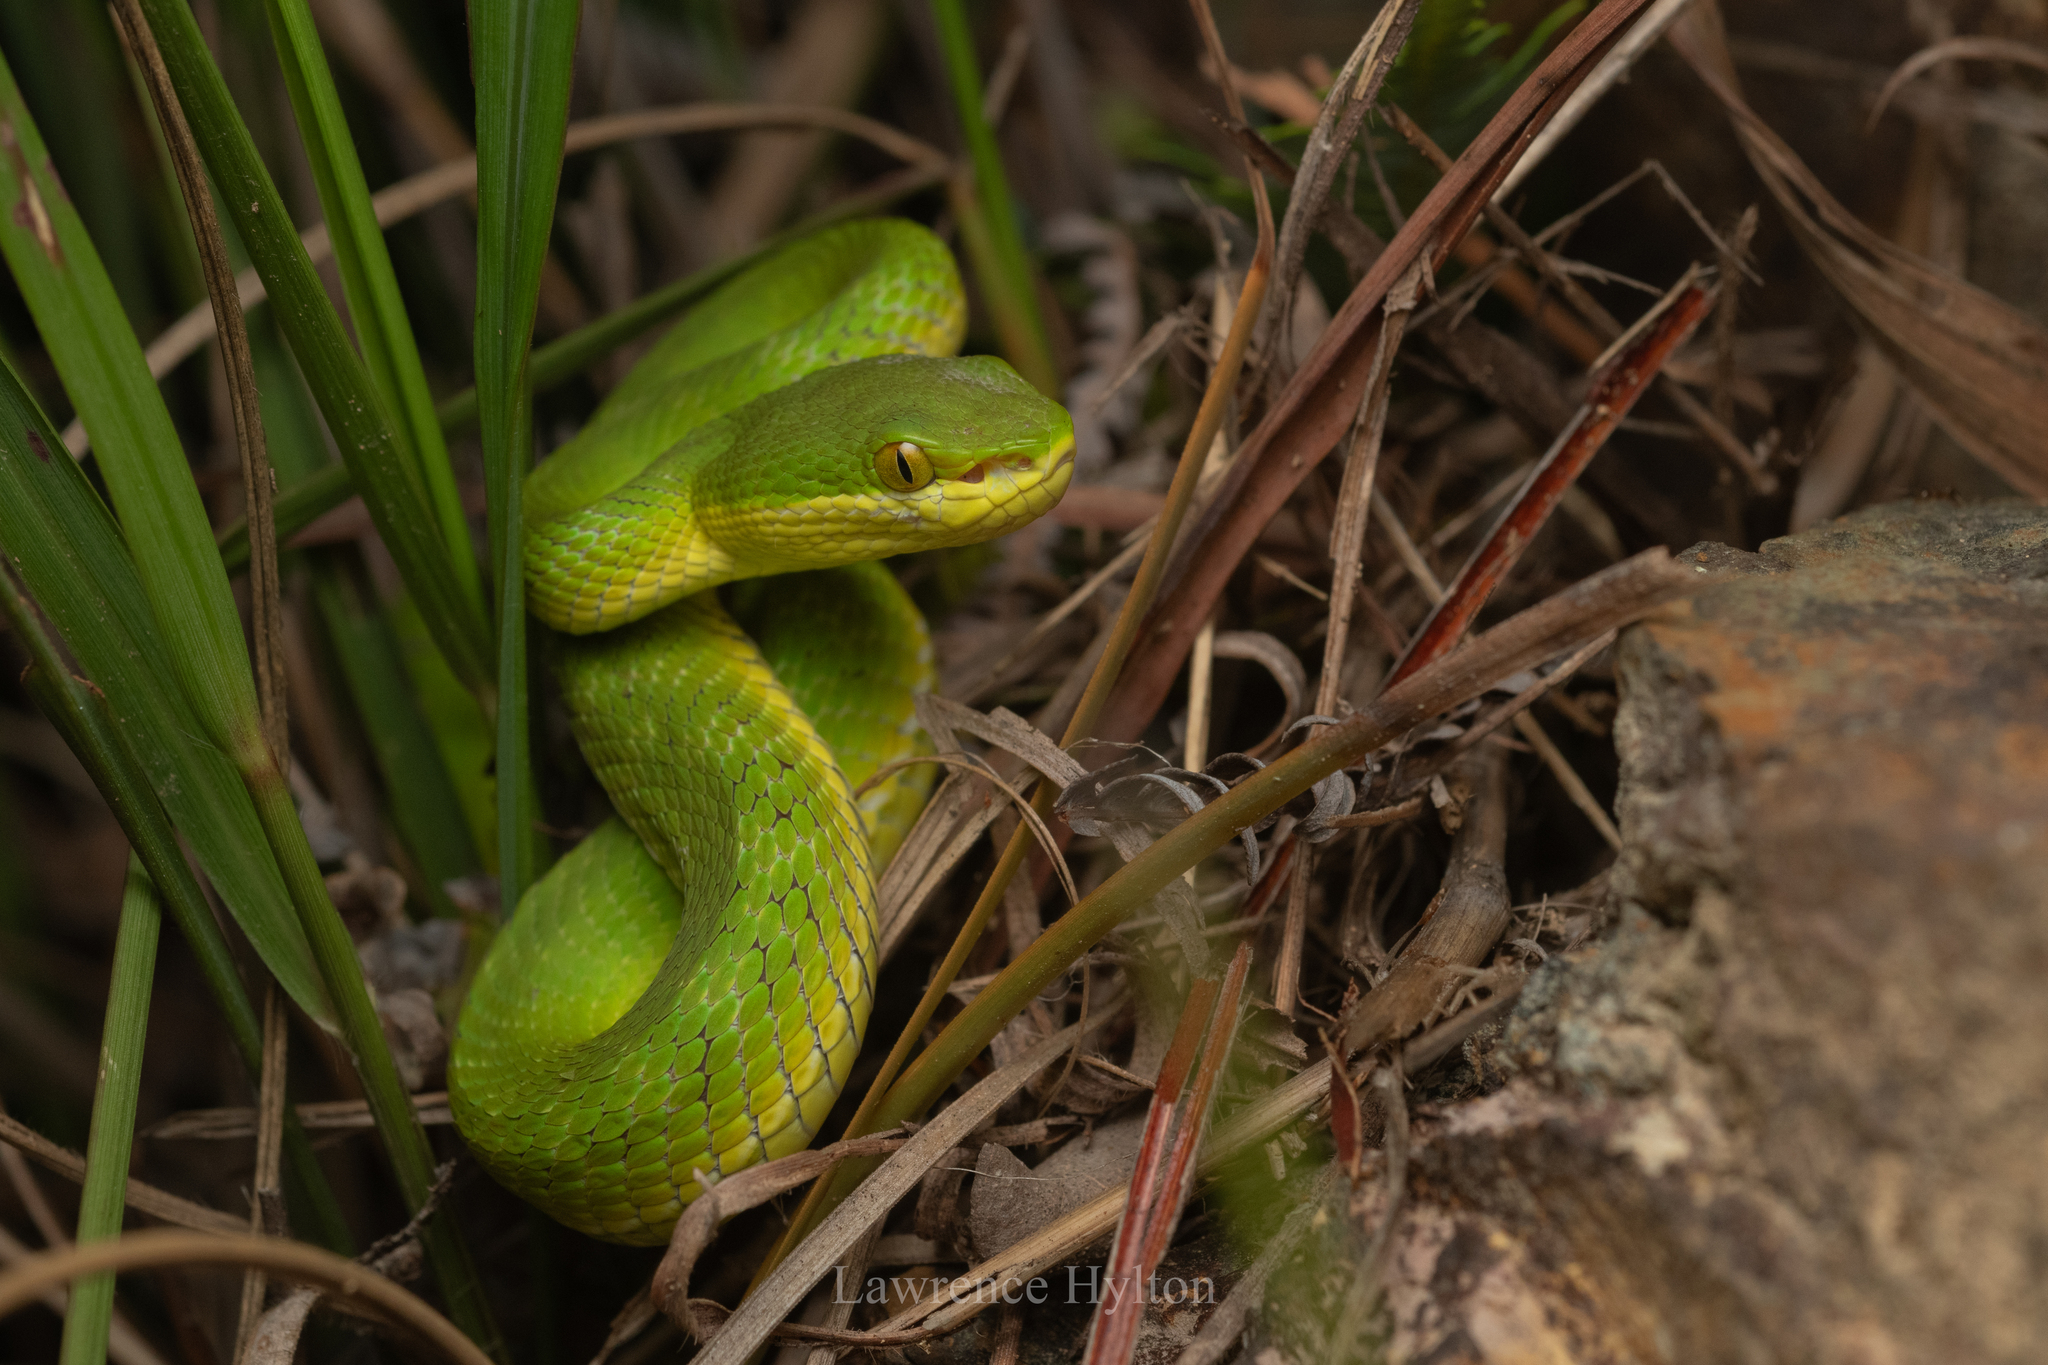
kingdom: Animalia
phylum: Chordata
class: Squamata
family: Viperidae
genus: Trimeresurus
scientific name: Trimeresurus albolabris
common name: White-lipped pitviper
